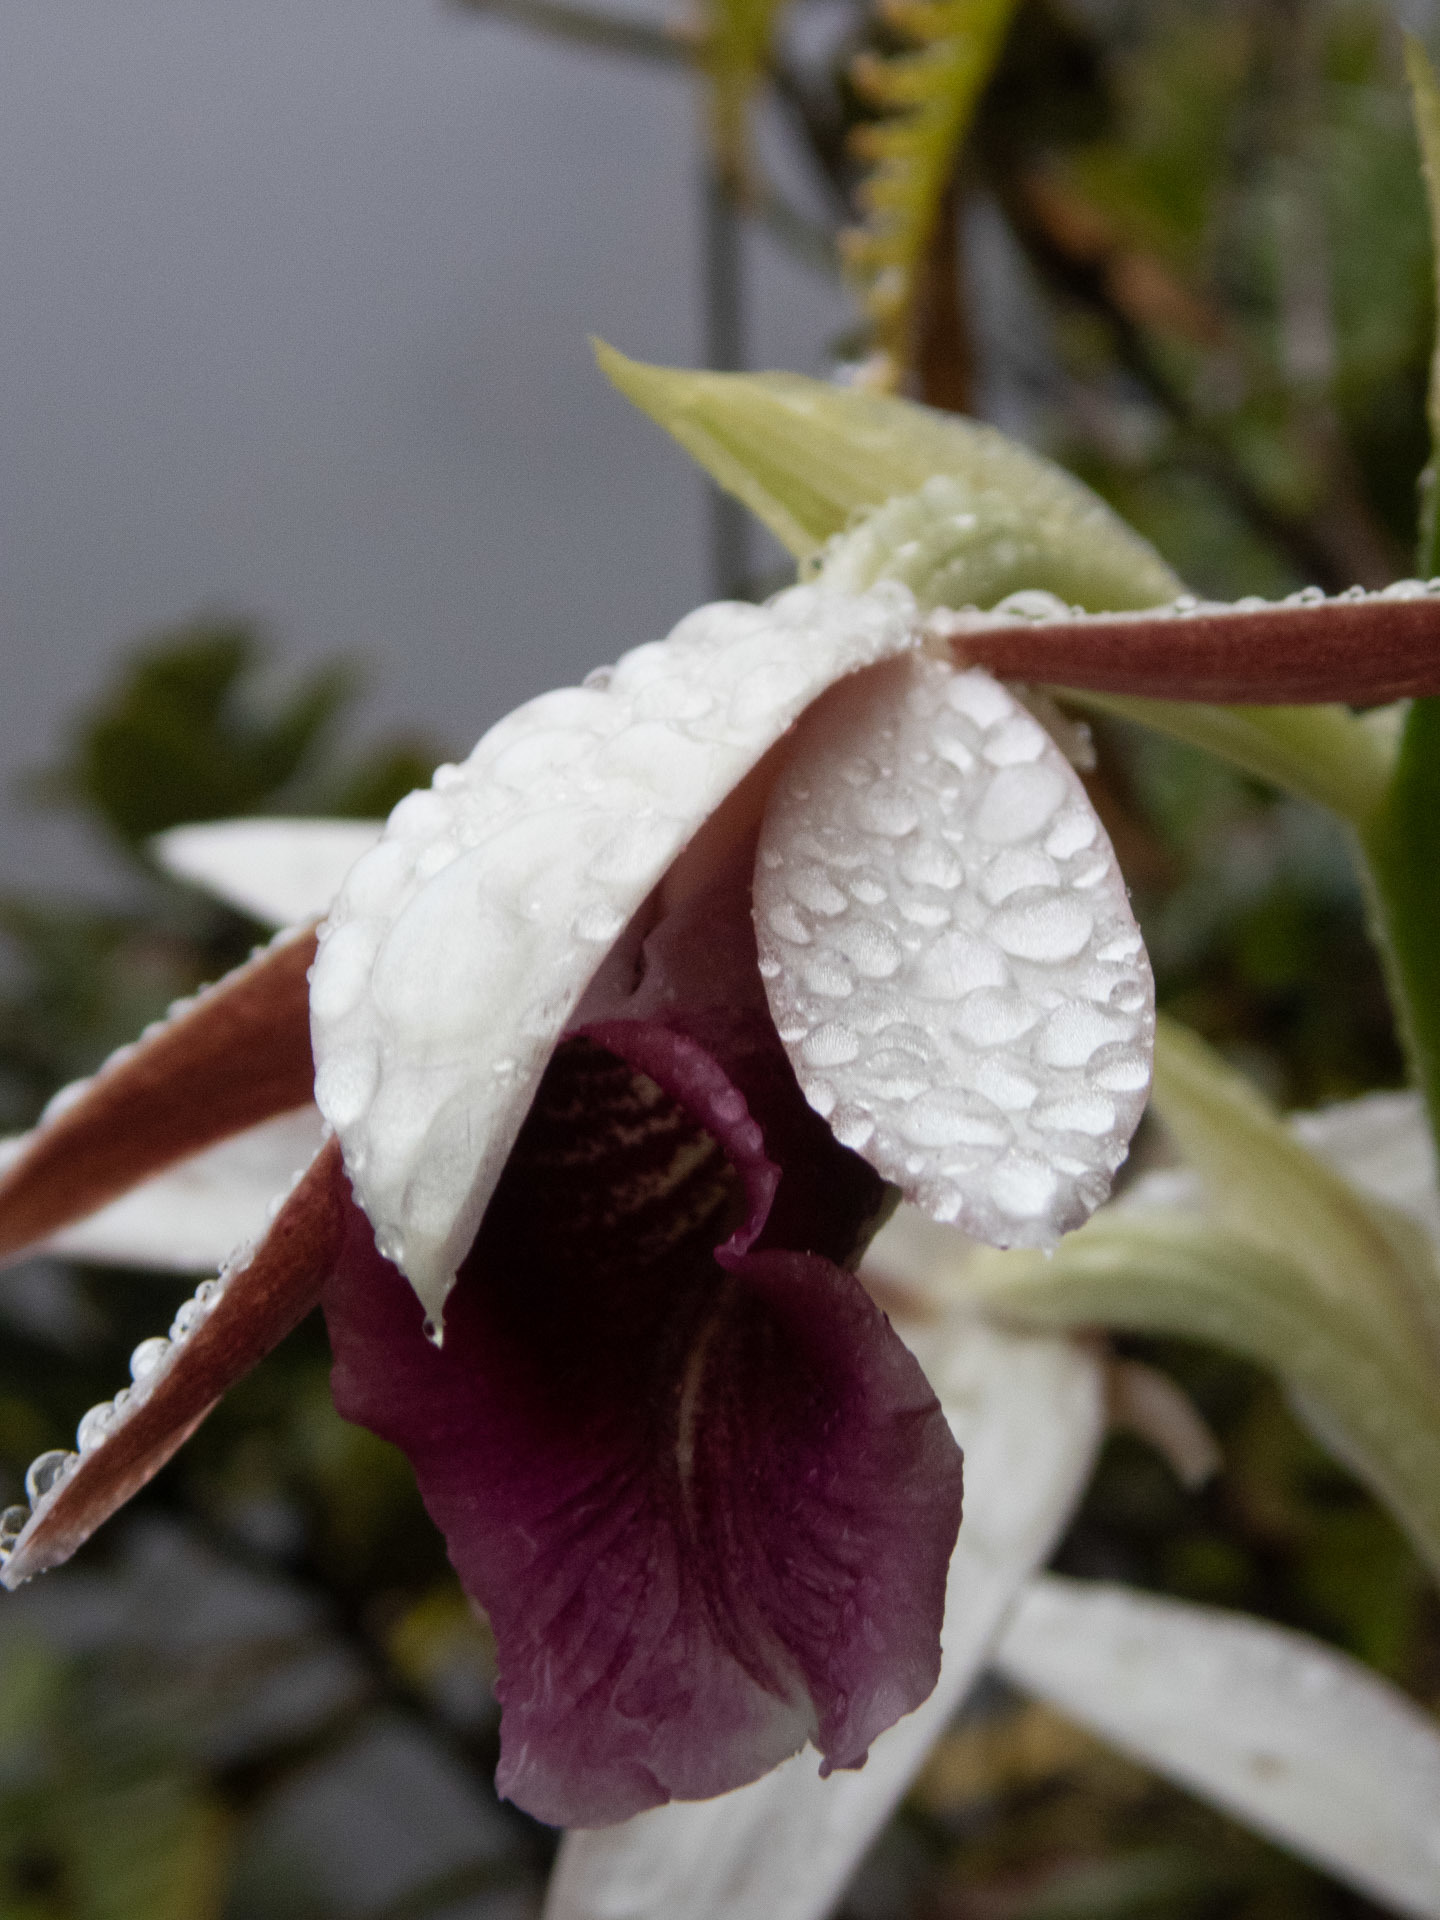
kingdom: Plantae
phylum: Tracheophyta
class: Liliopsida
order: Asparagales
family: Orchidaceae
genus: Calanthe
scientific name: Calanthe tankervilleae
